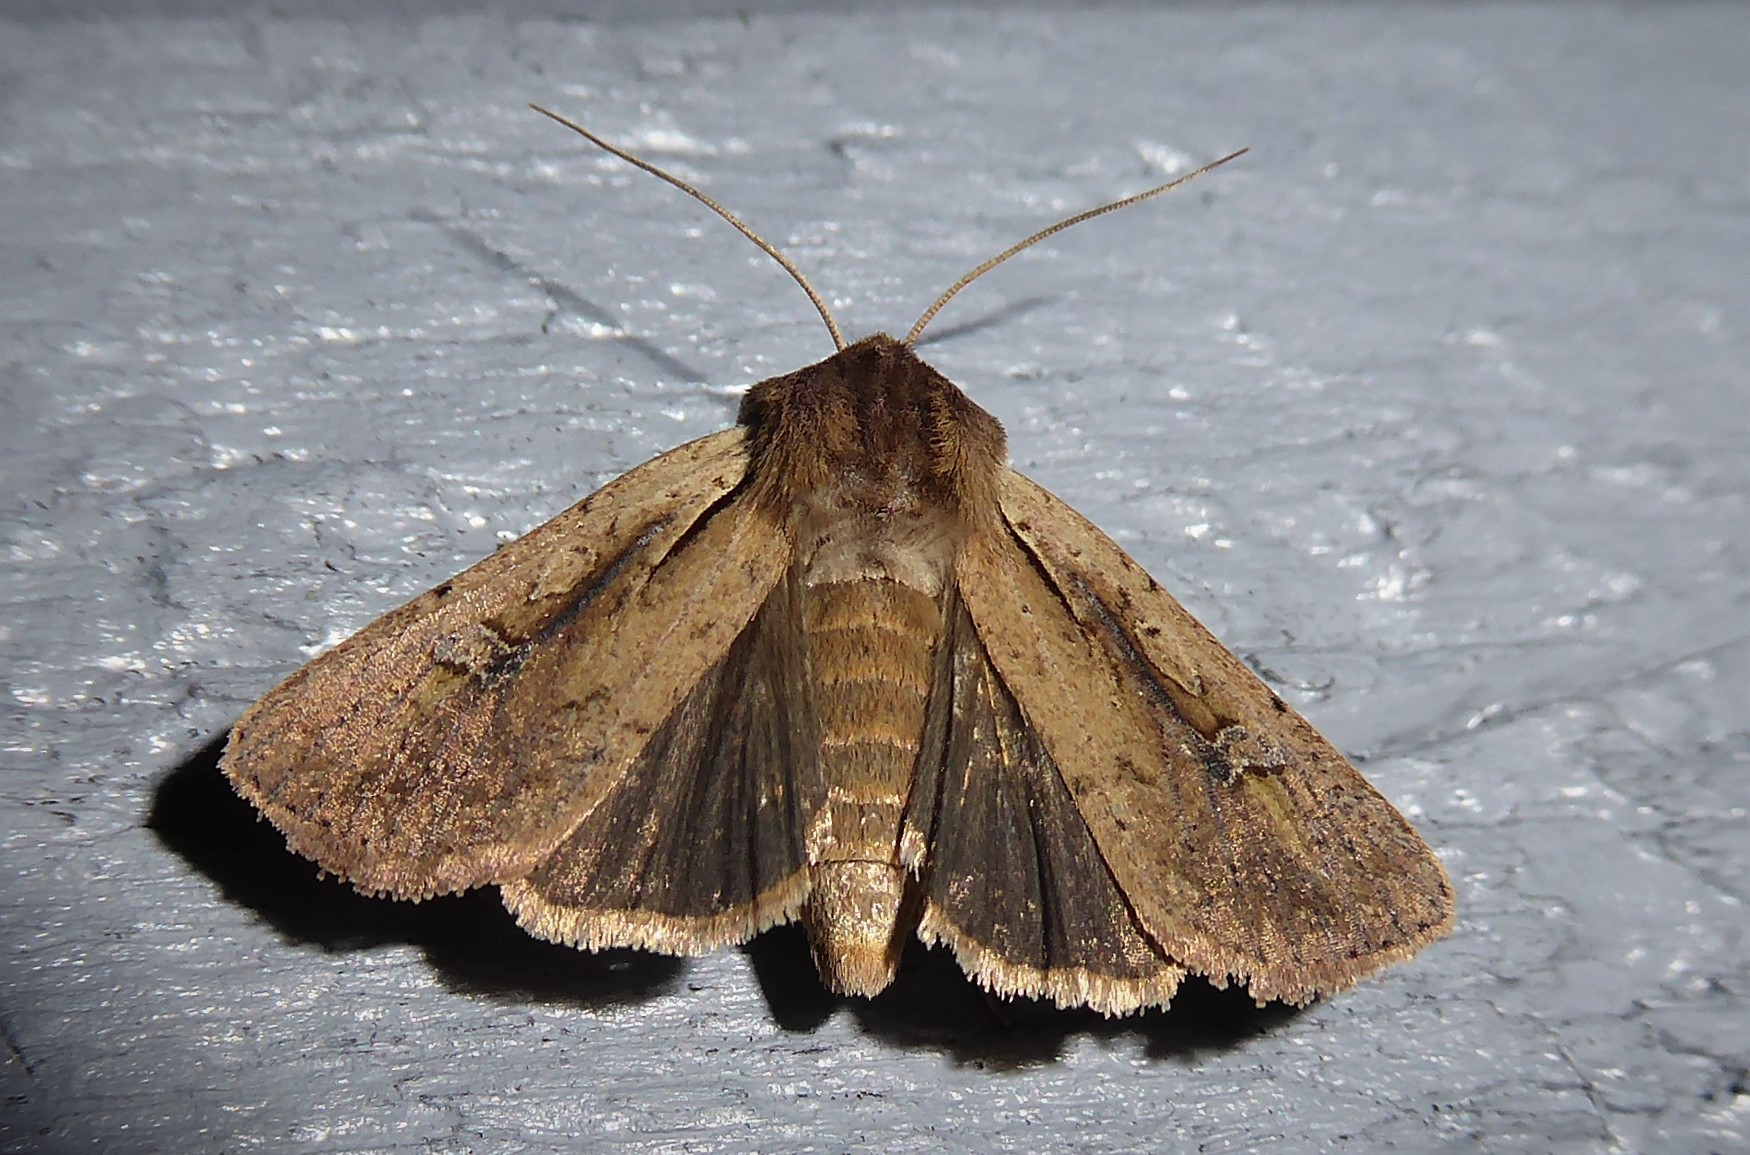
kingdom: Animalia
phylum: Arthropoda
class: Insecta
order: Lepidoptera
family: Noctuidae
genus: Ichneutica
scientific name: Ichneutica atristriga
